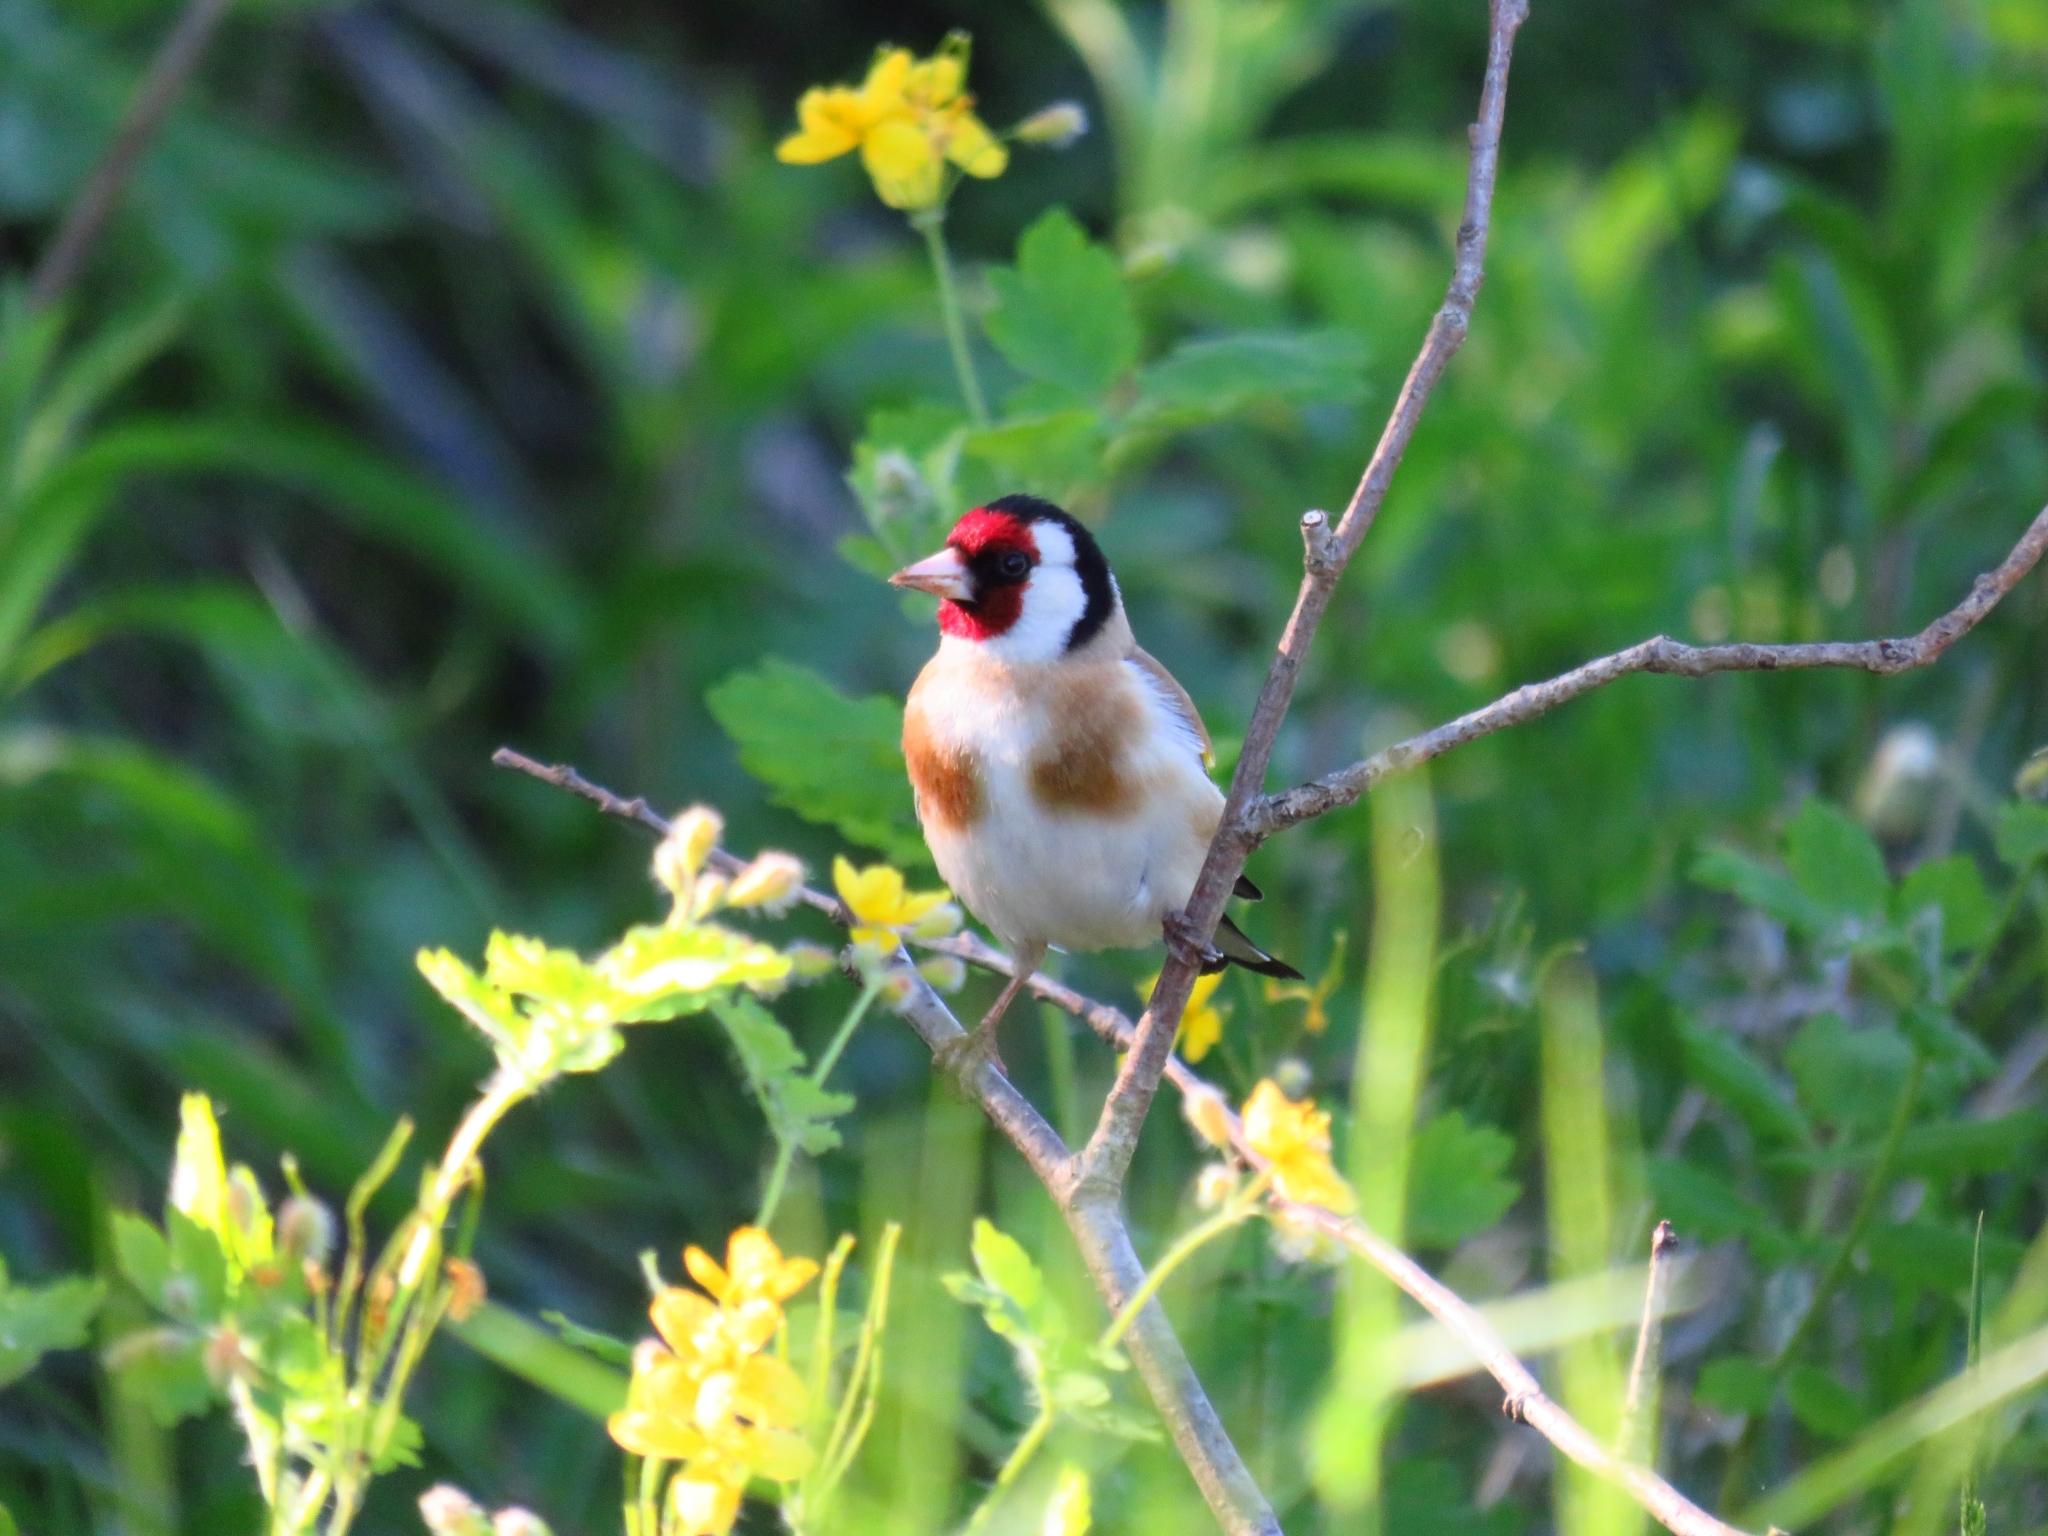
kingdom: Animalia
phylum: Chordata
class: Aves
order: Passeriformes
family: Fringillidae
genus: Carduelis
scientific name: Carduelis carduelis
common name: European goldfinch
